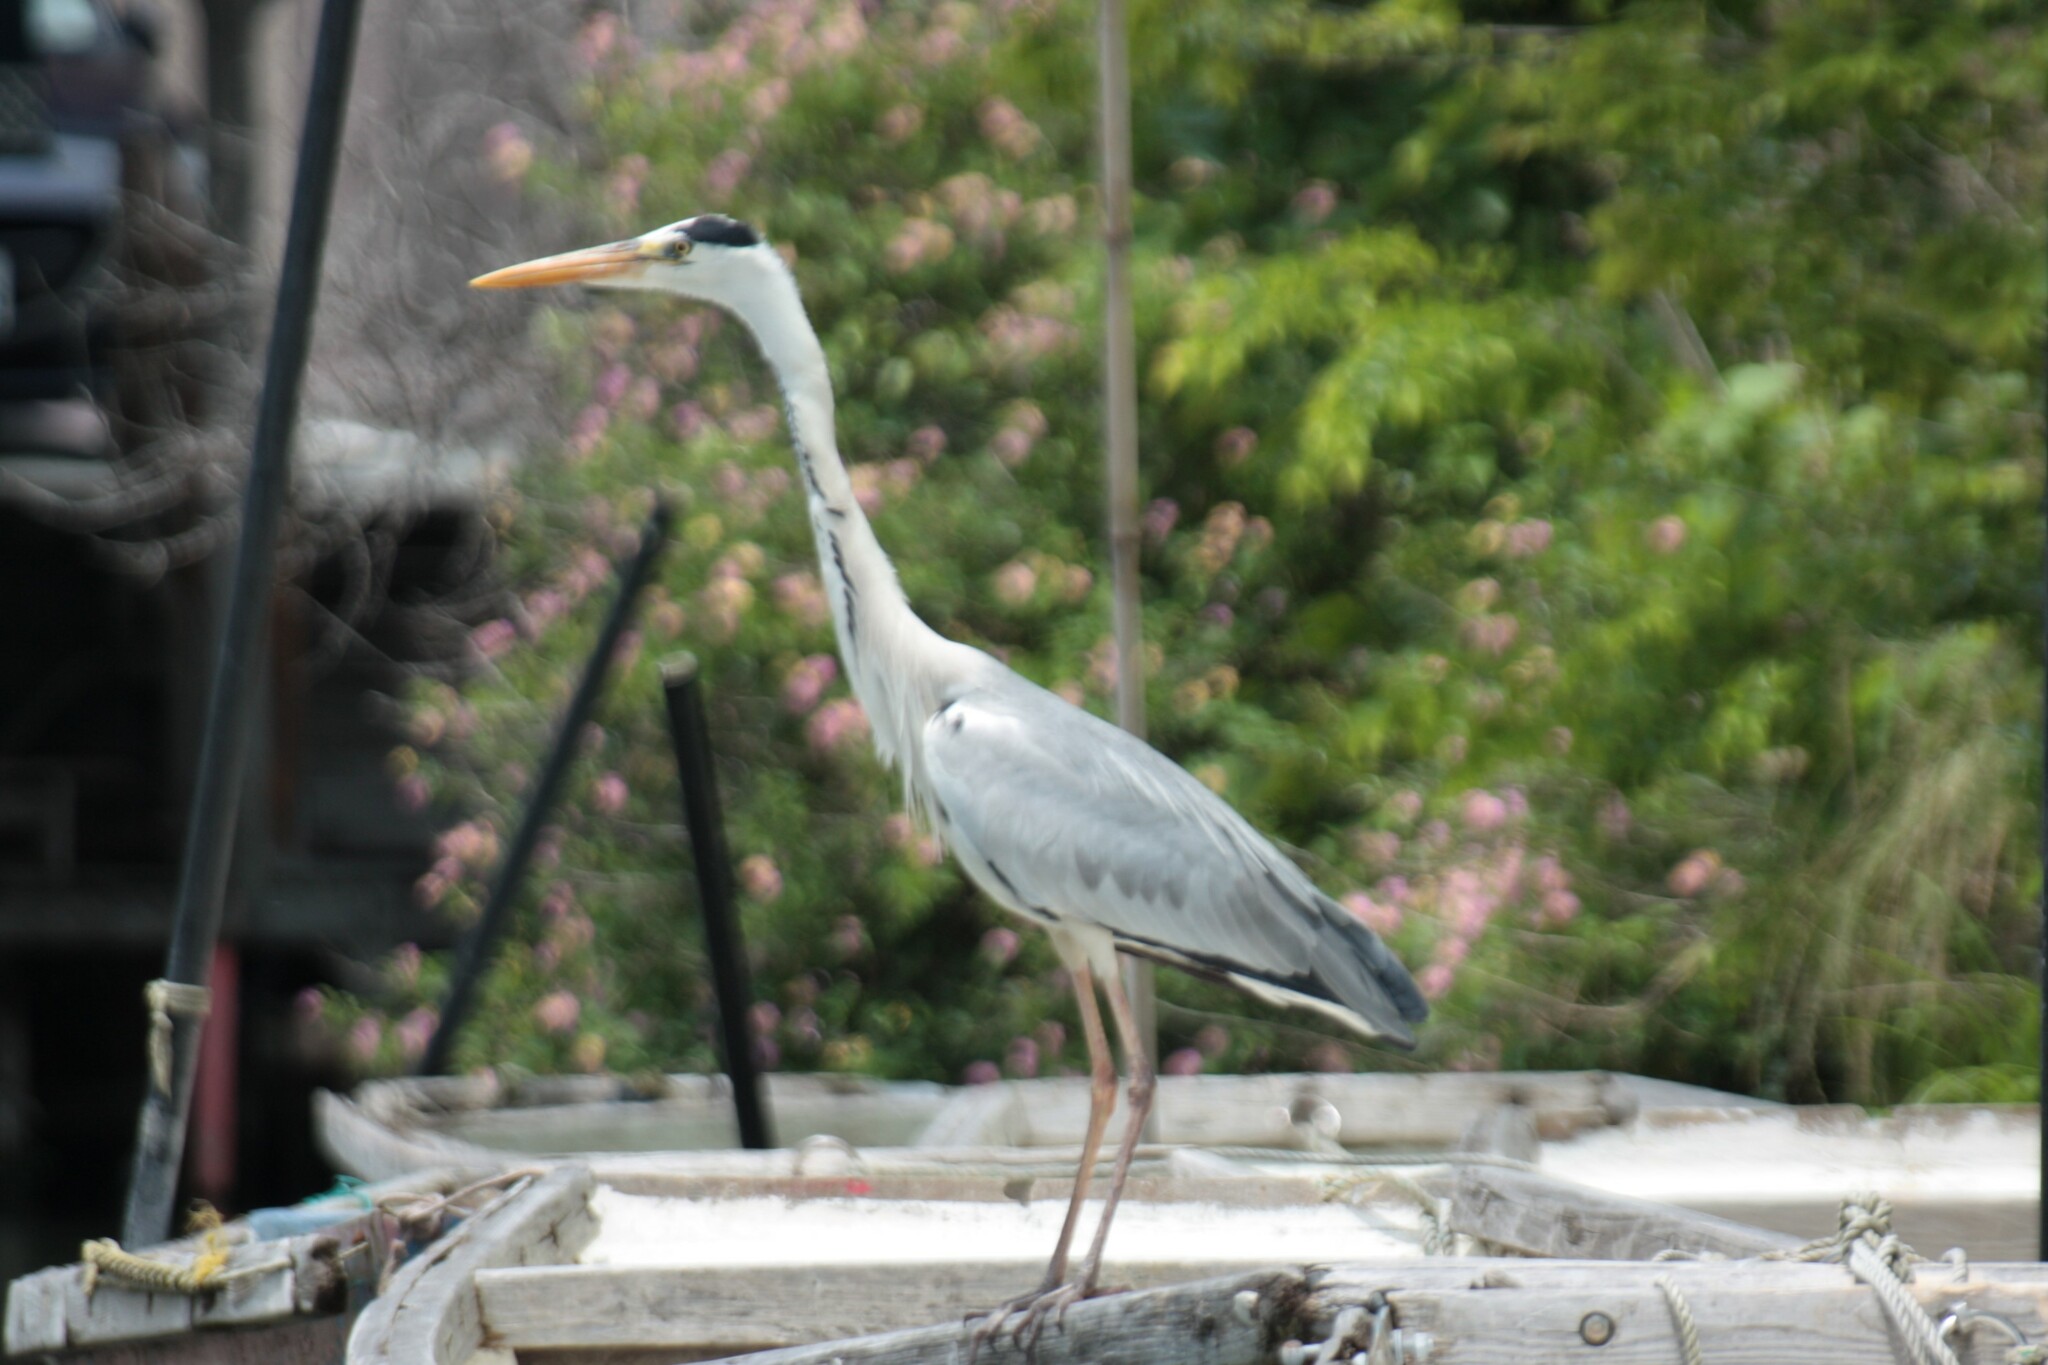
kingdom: Animalia
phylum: Chordata
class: Aves
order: Pelecaniformes
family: Ardeidae
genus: Ardea
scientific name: Ardea cinerea
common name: Grey heron
